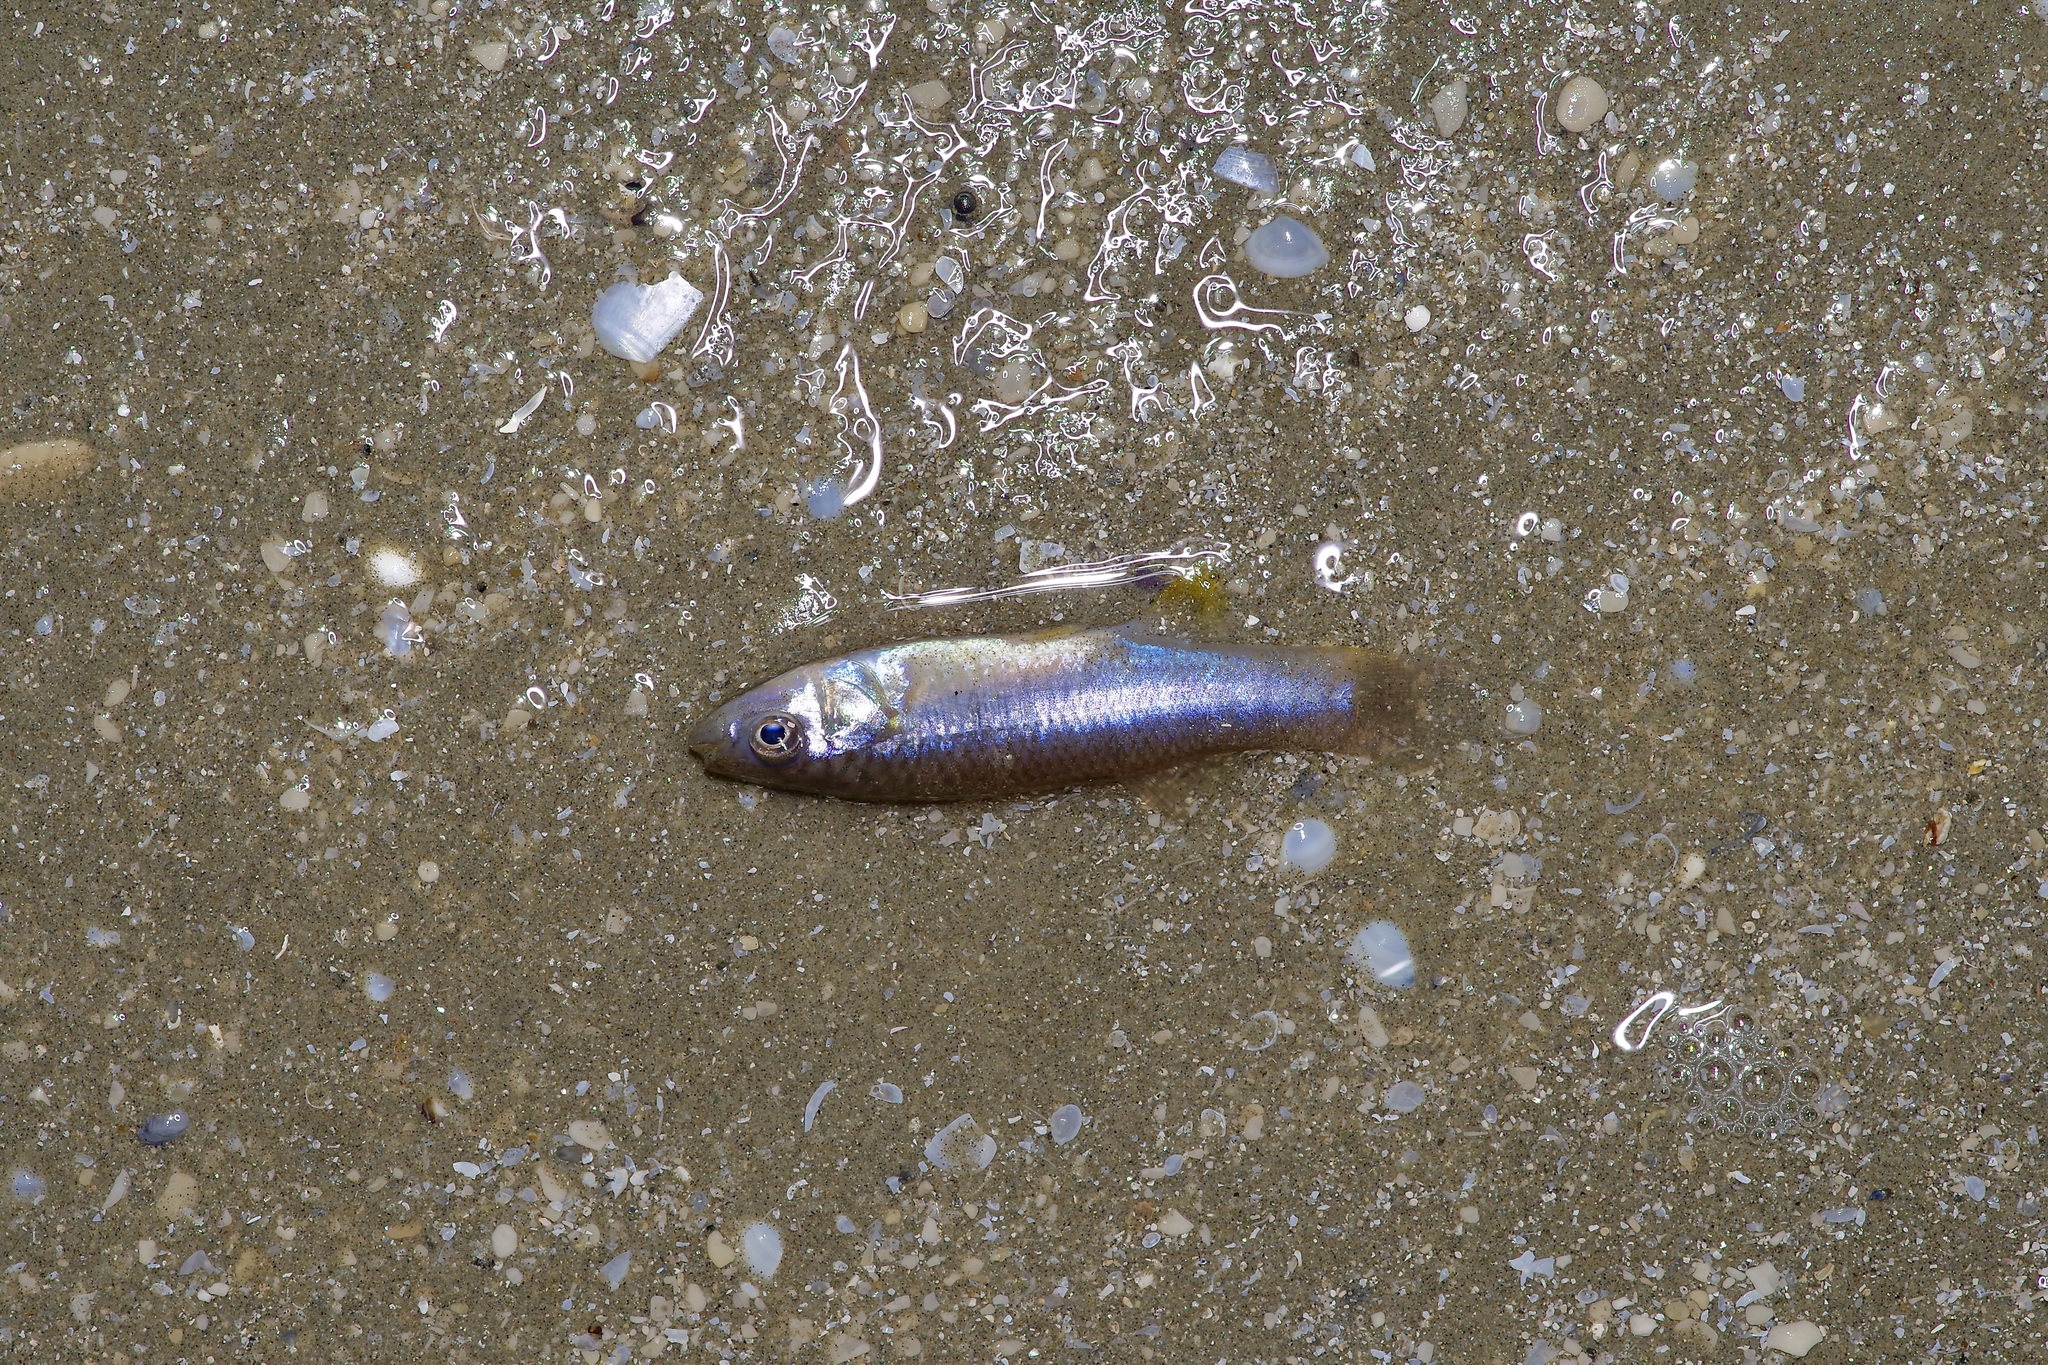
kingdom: Animalia
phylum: Chordata
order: Cyprinodontiformes
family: Fundulidae
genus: Fundulus
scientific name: Fundulus grandis
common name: Gulf killifish
